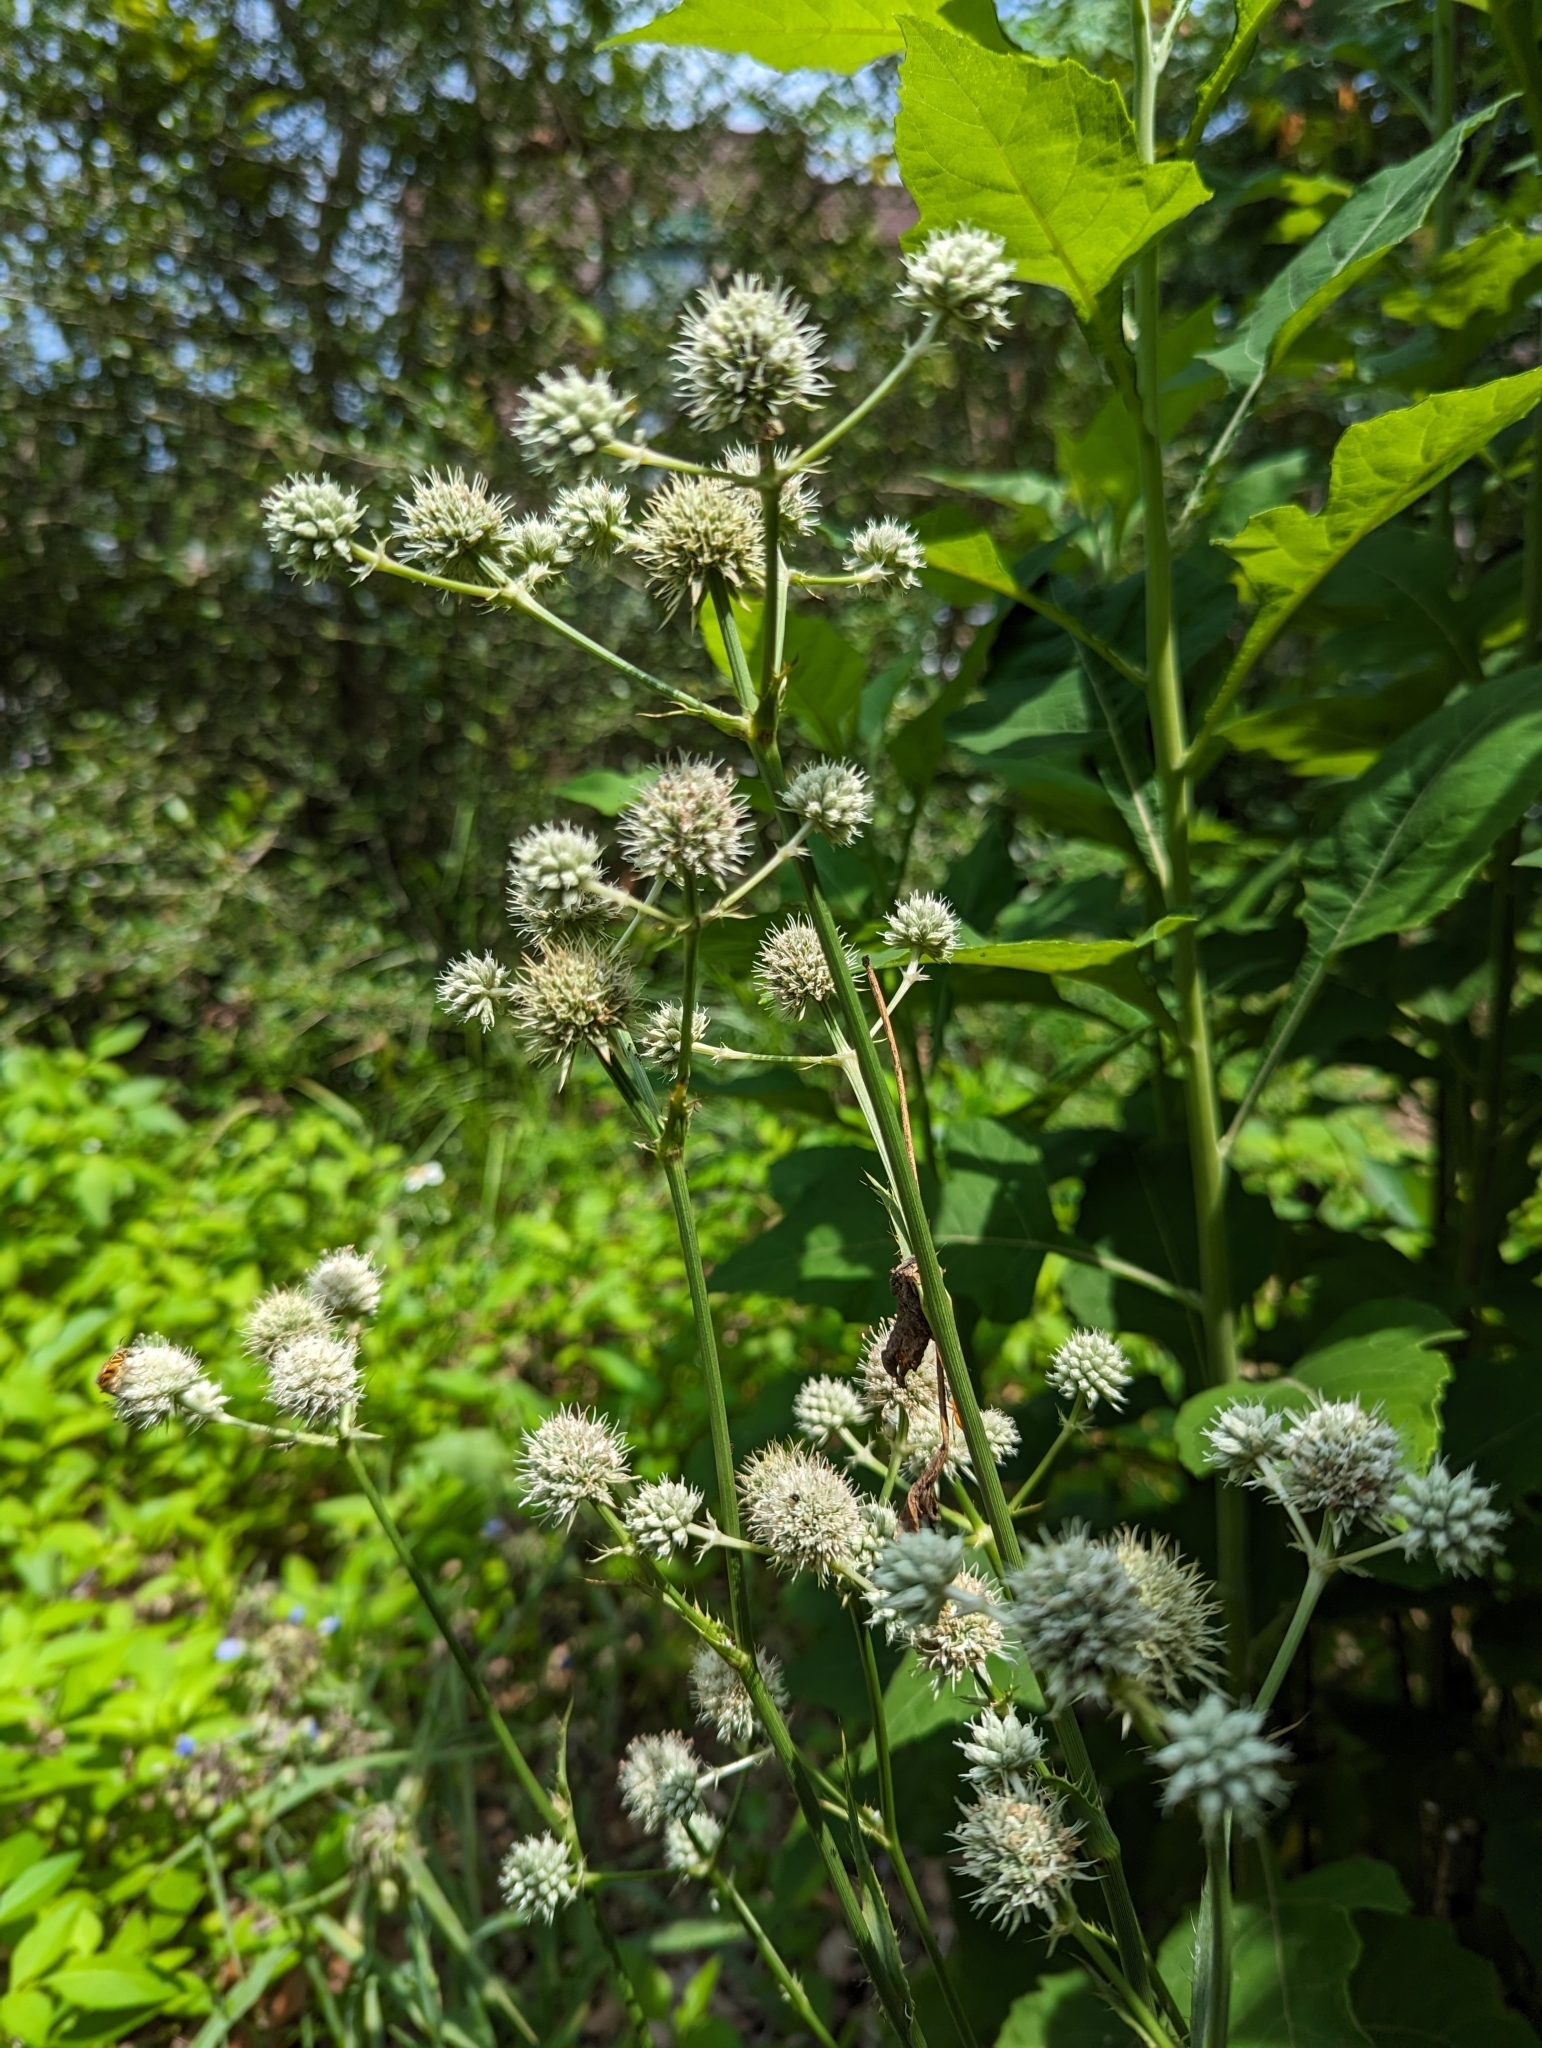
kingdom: Plantae
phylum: Tracheophyta
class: Magnoliopsida
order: Apiales
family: Apiaceae
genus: Eryngium
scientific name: Eryngium yuccifolium
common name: Button eryngo
